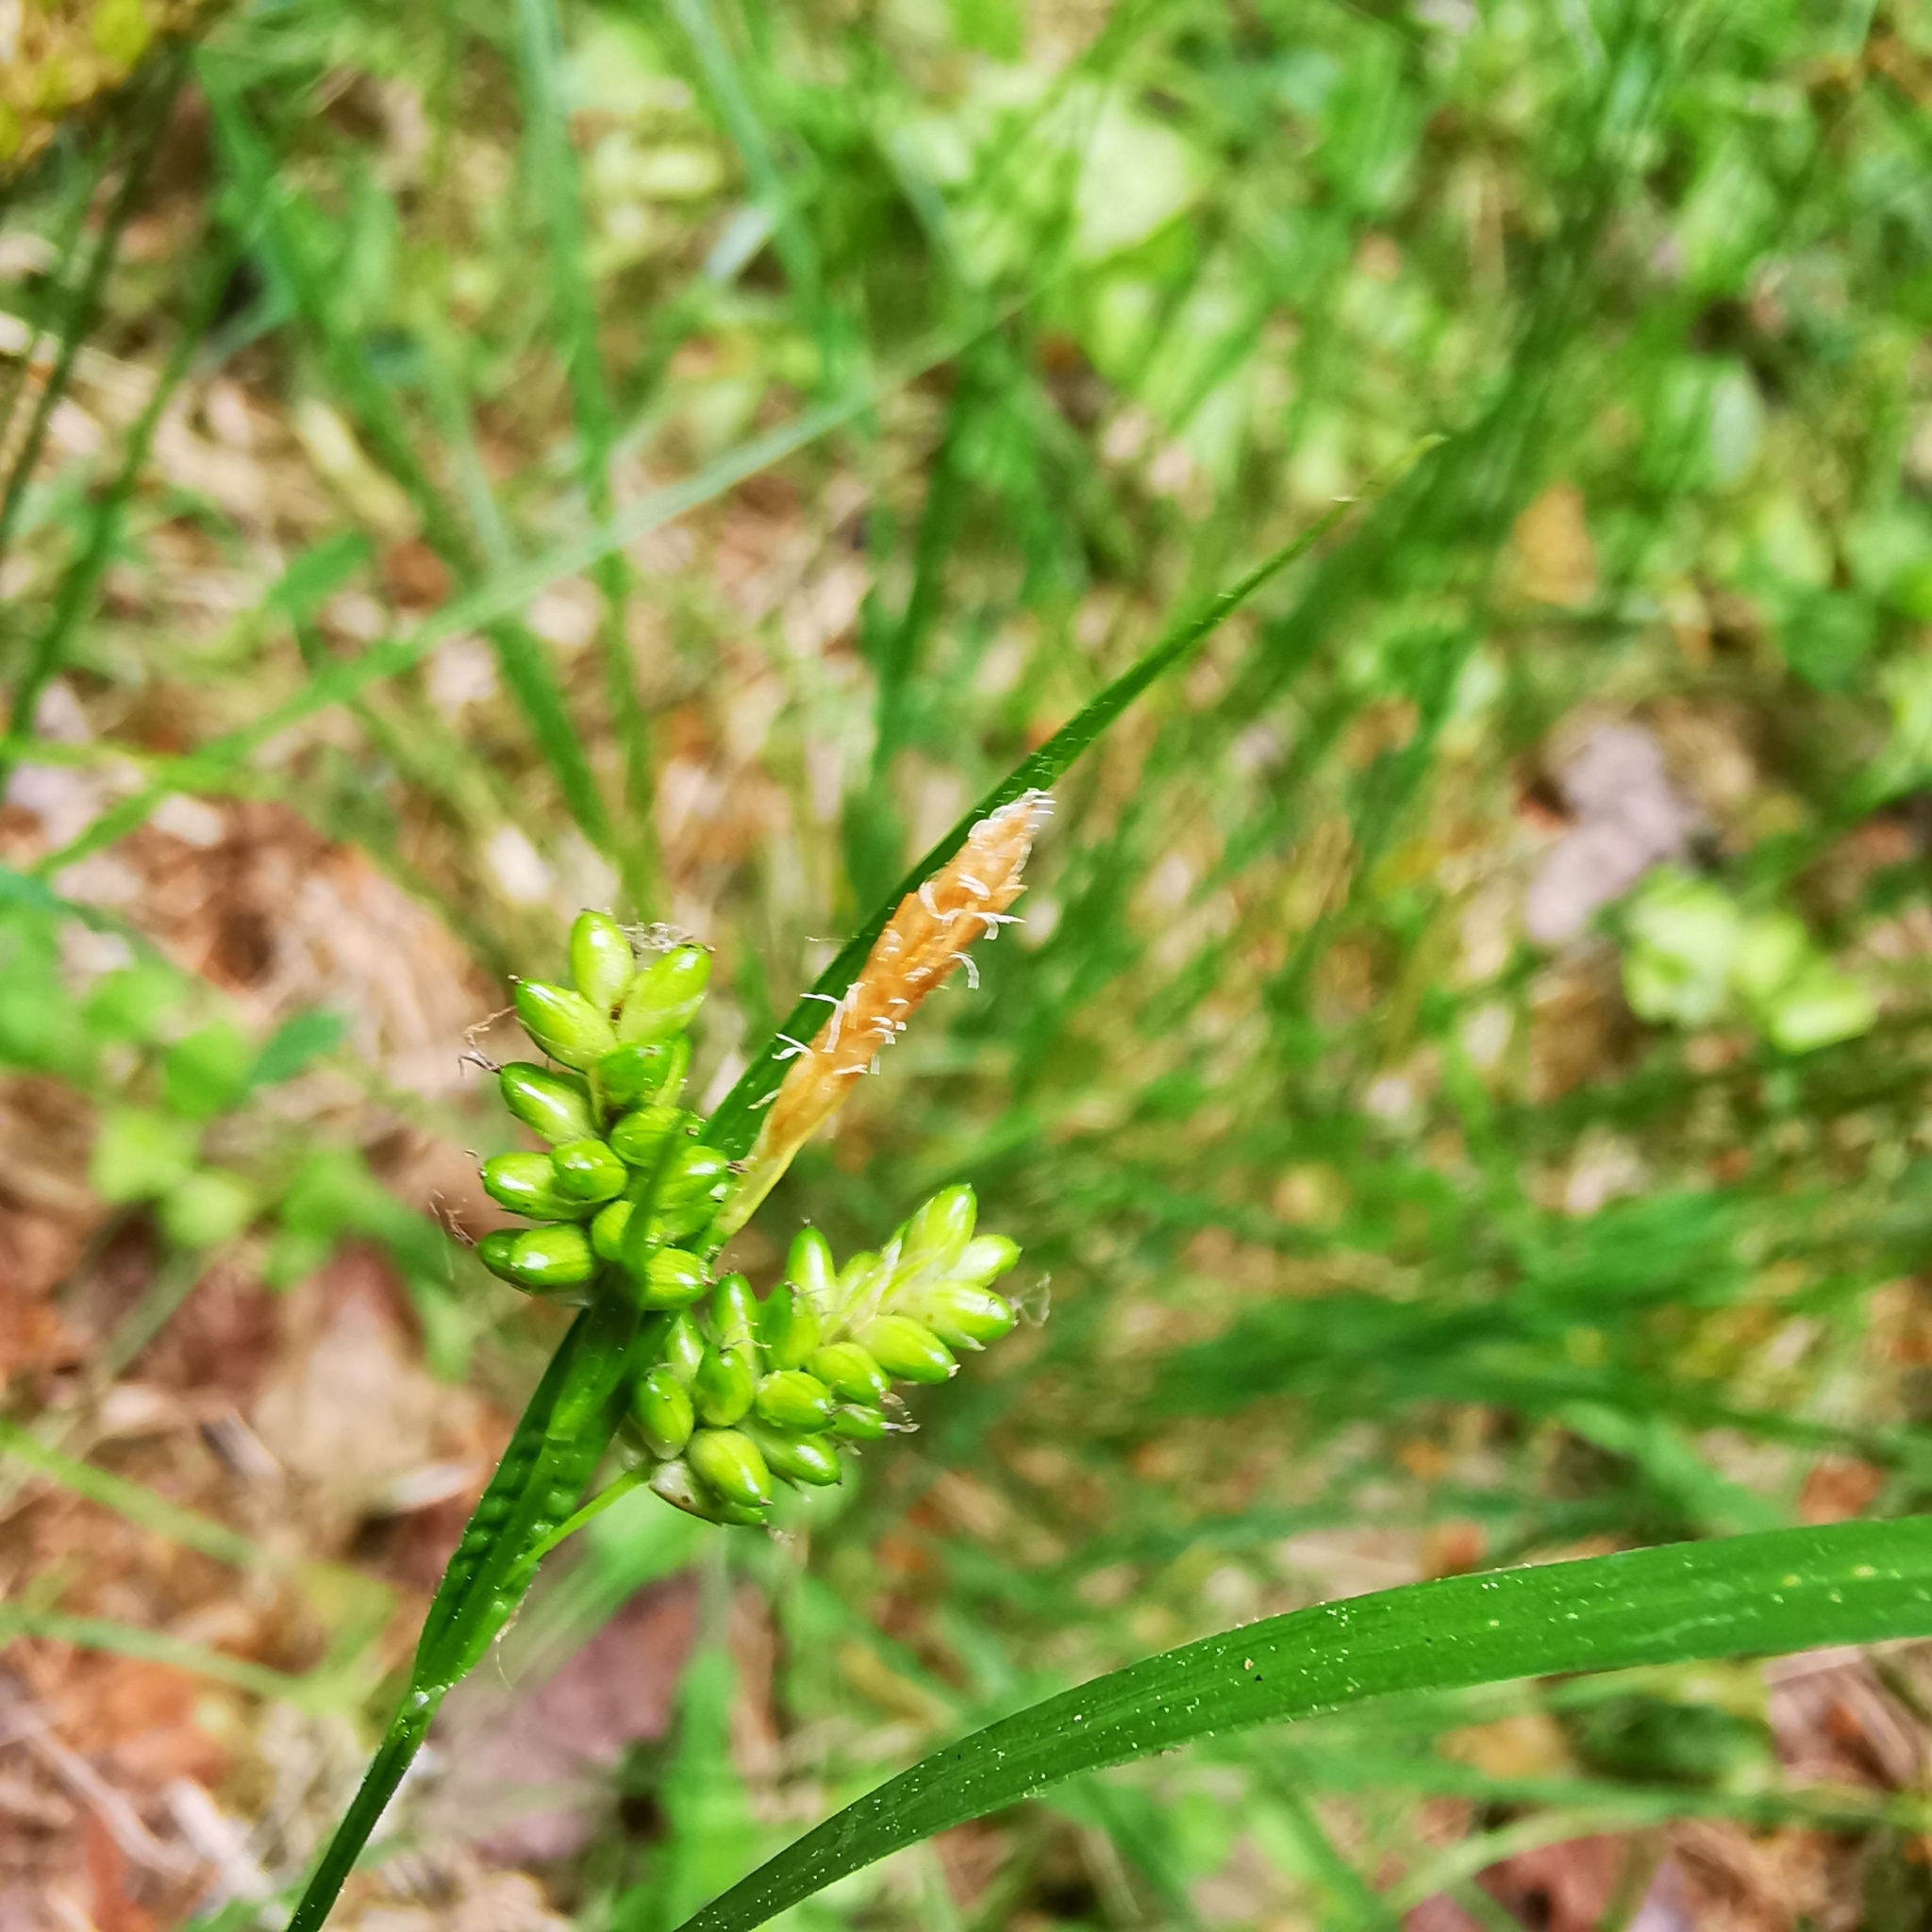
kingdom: Plantae
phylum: Tracheophyta
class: Liliopsida
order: Poales
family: Cyperaceae
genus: Carex
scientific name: Carex pallescens
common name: Pale sedge
